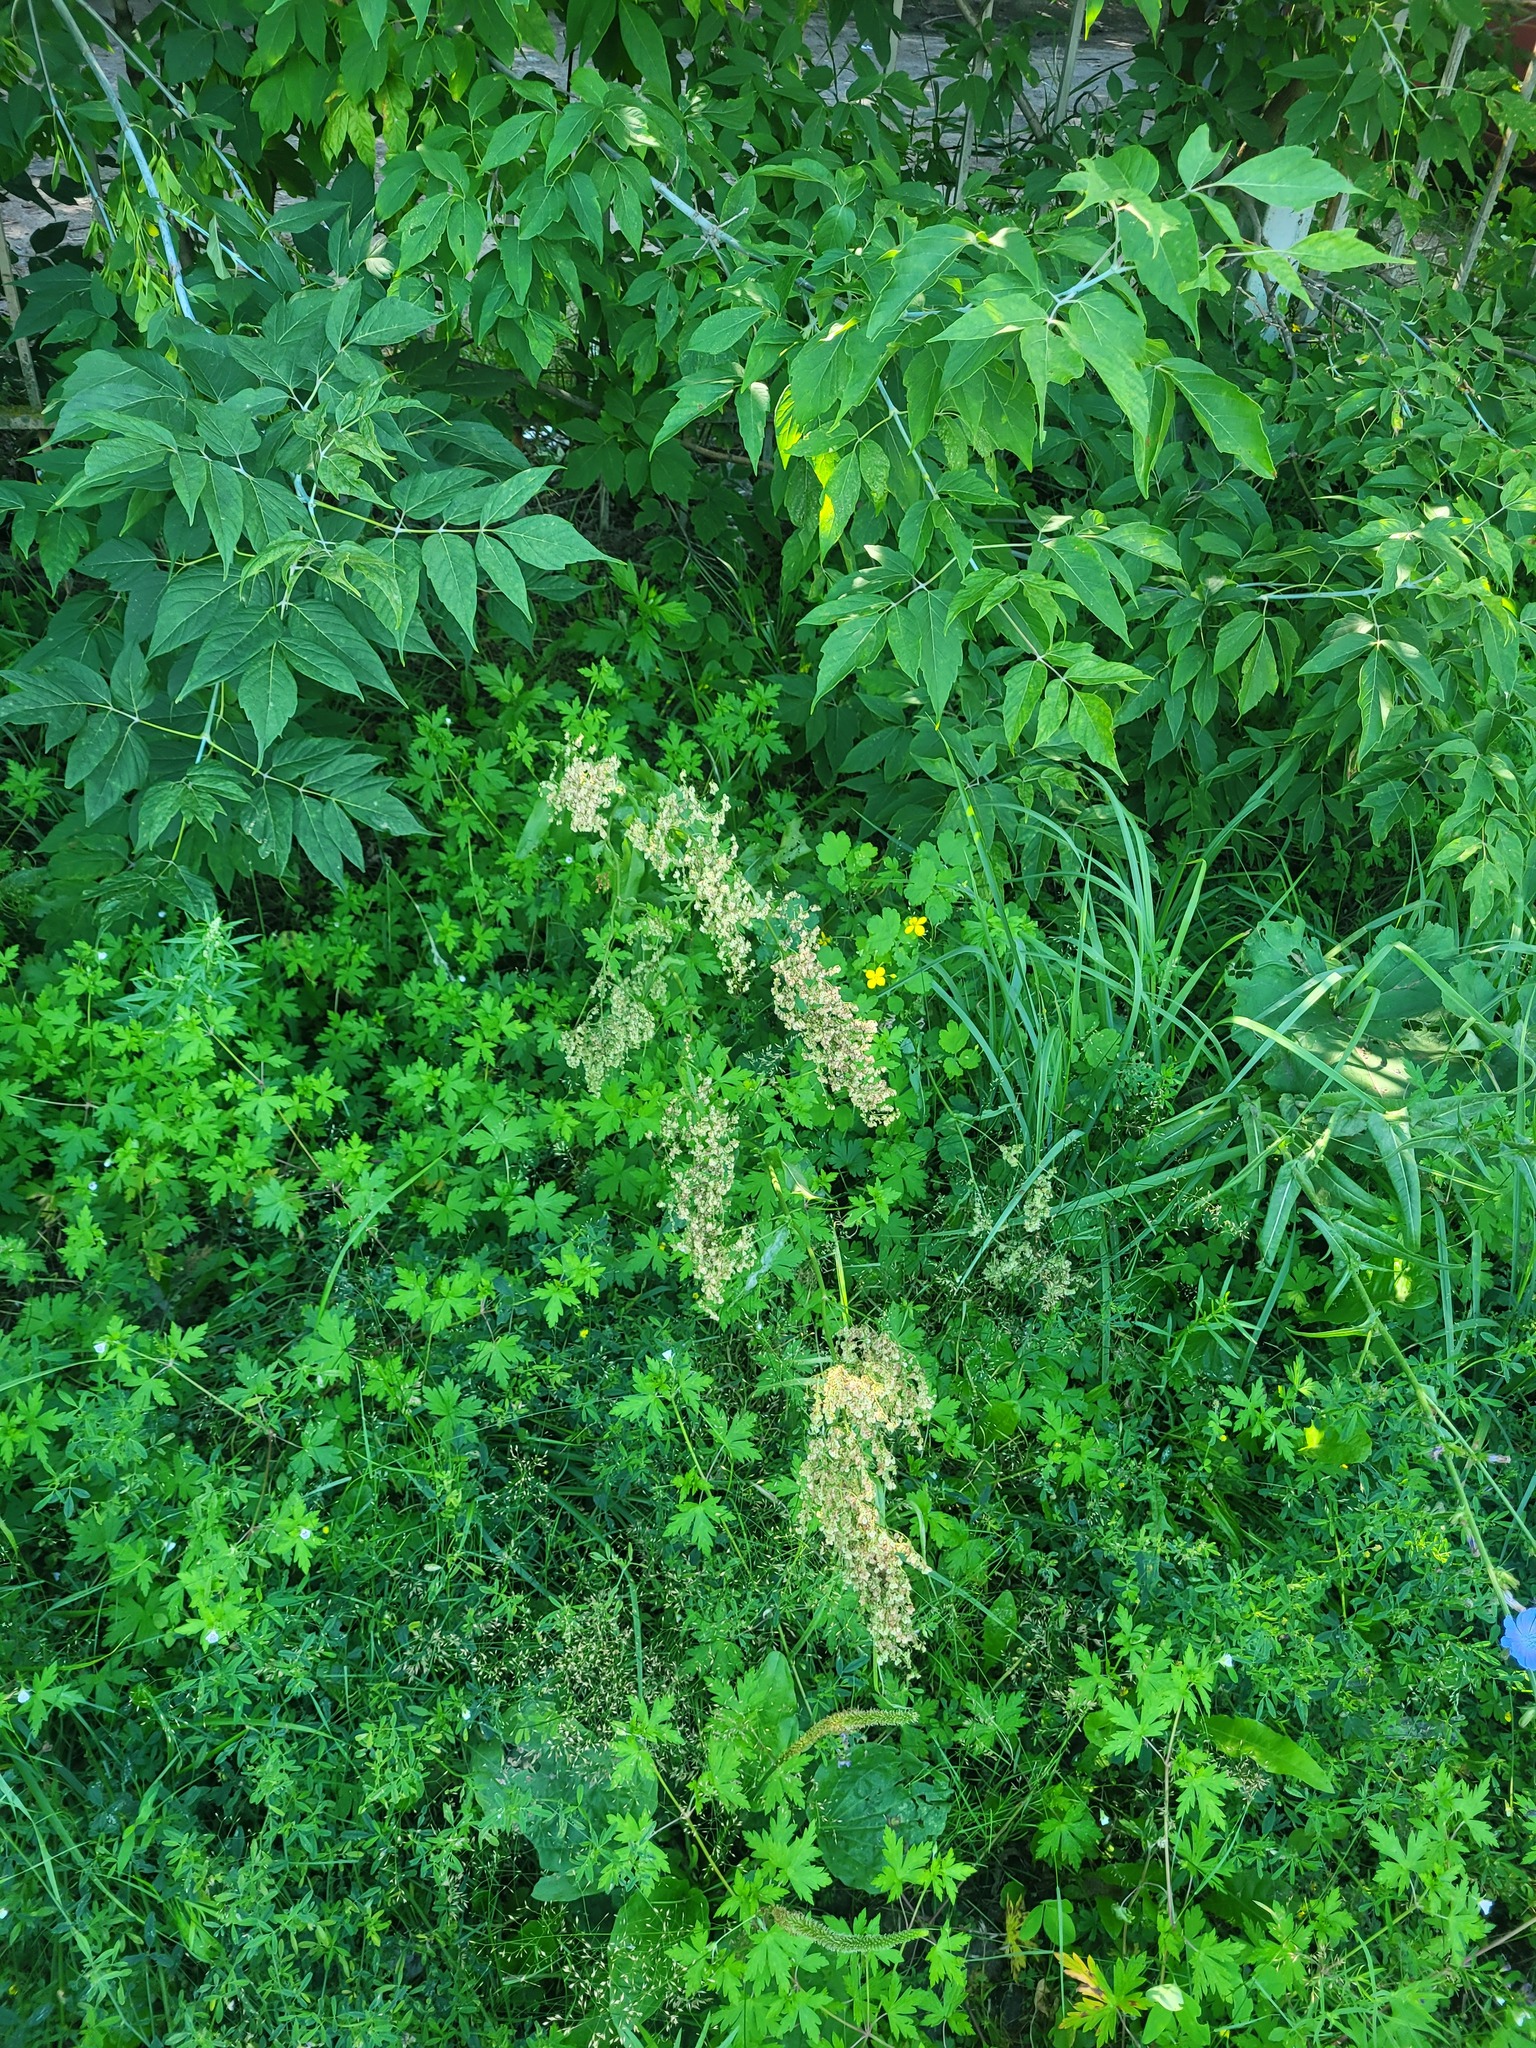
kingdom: Plantae
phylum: Tracheophyta
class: Magnoliopsida
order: Caryophyllales
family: Polygonaceae
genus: Rumex
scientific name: Rumex thyrsiflorus
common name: Garden sorrel
